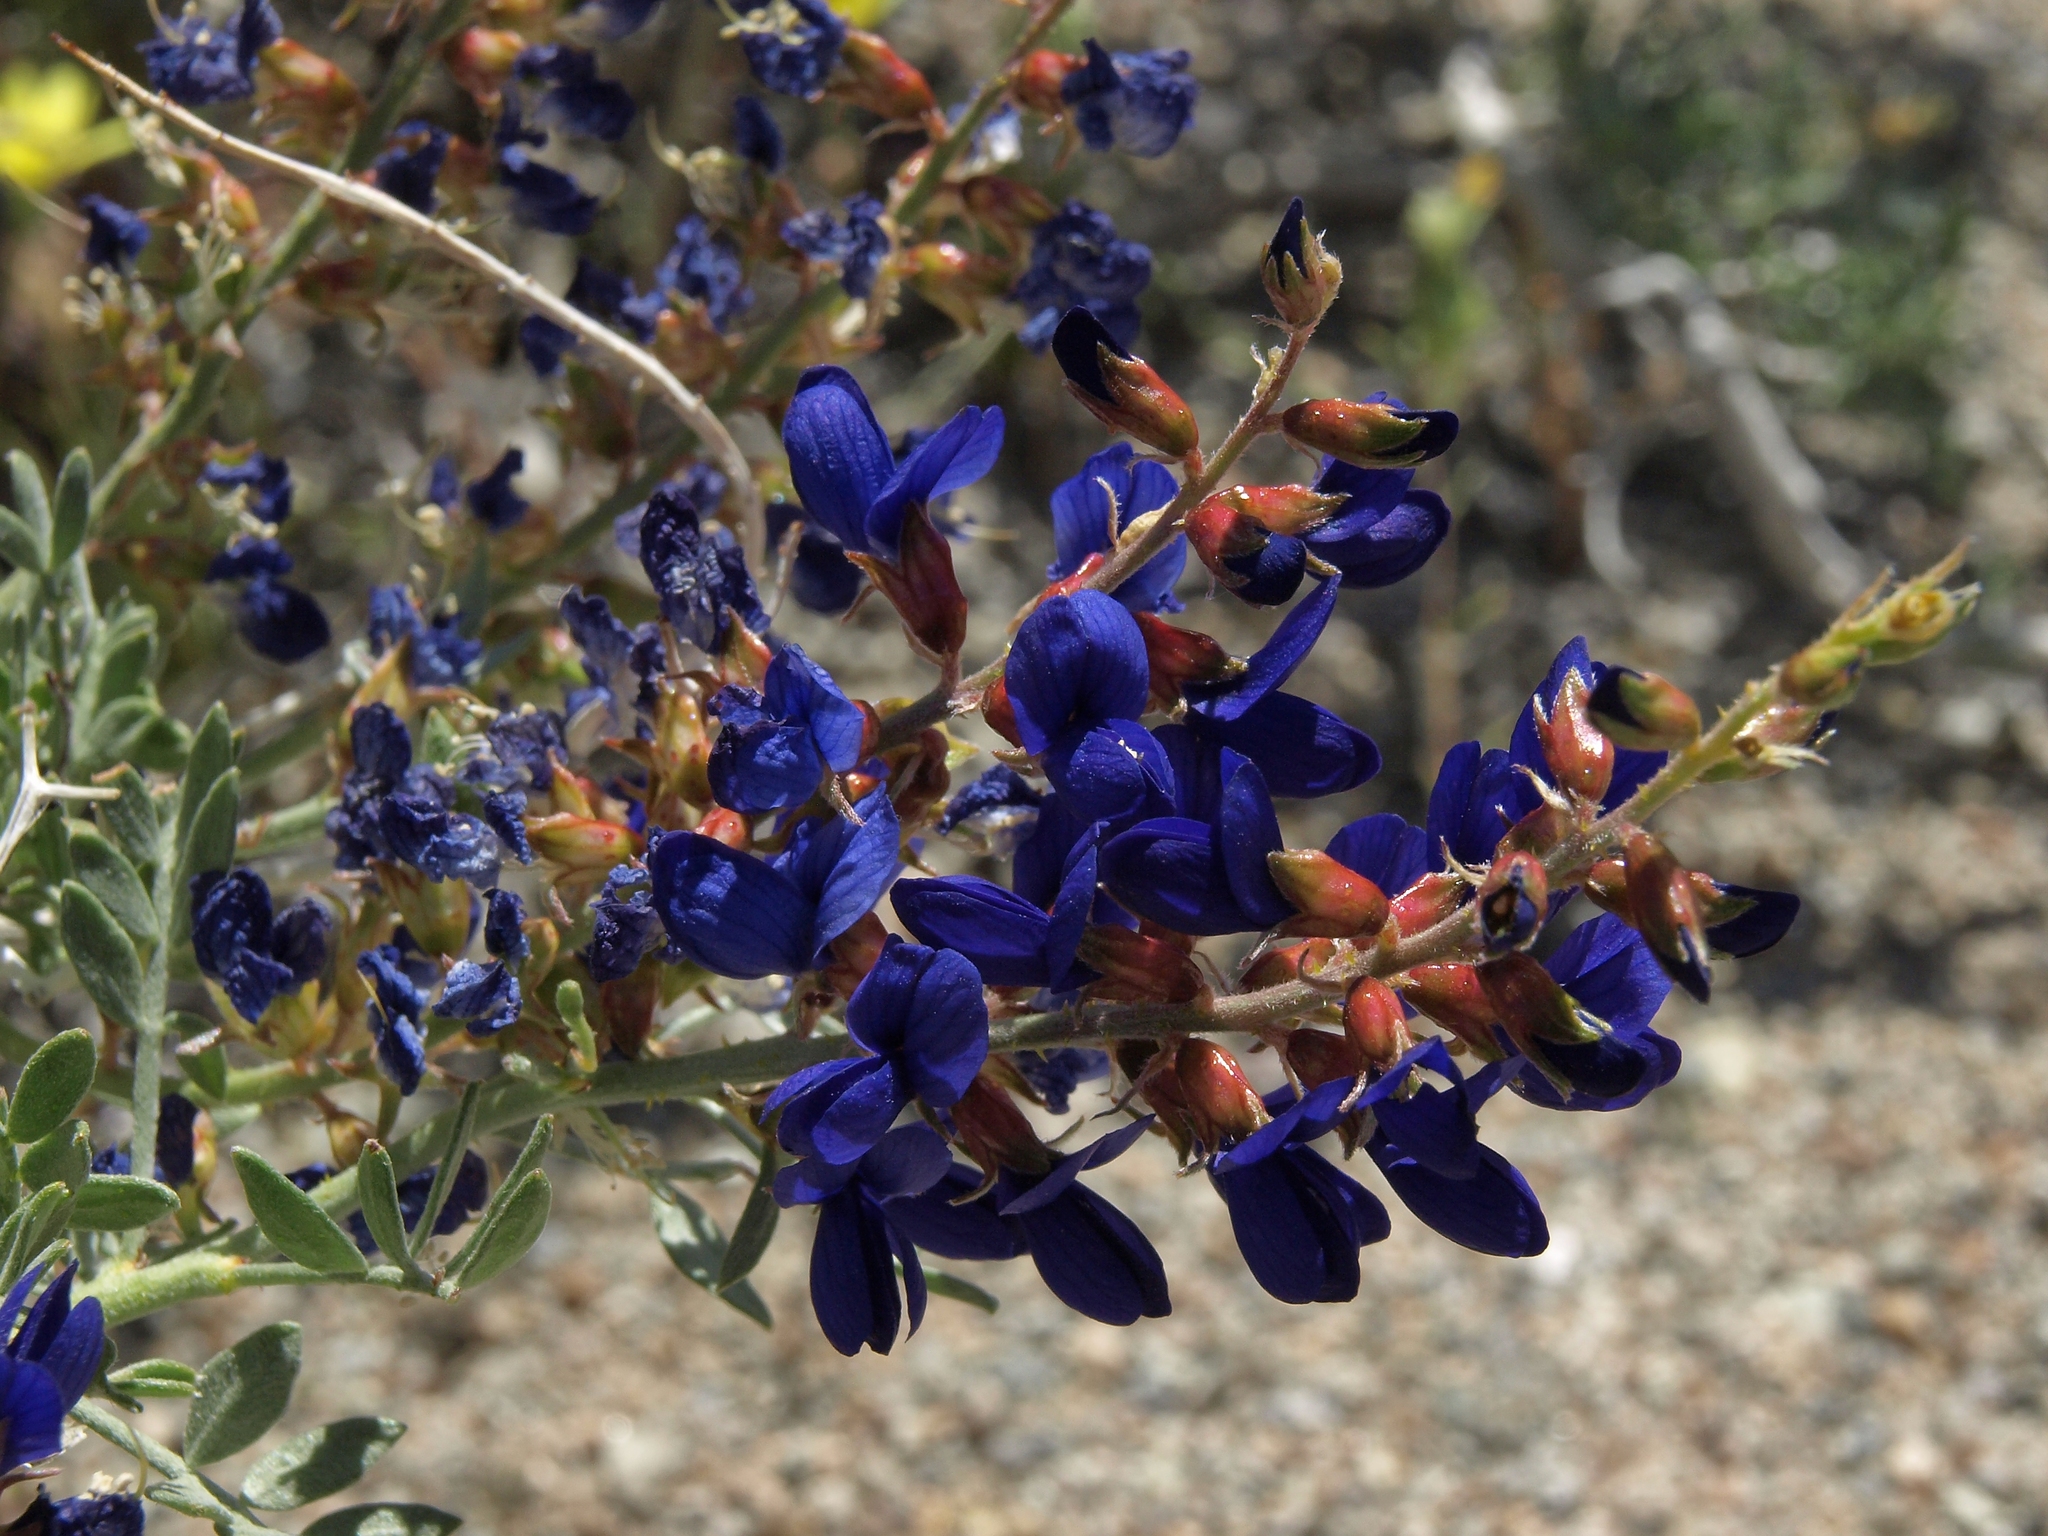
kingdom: Plantae
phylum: Tracheophyta
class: Magnoliopsida
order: Fabales
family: Fabaceae
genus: Psorothamnus
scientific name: Psorothamnus arborescens
